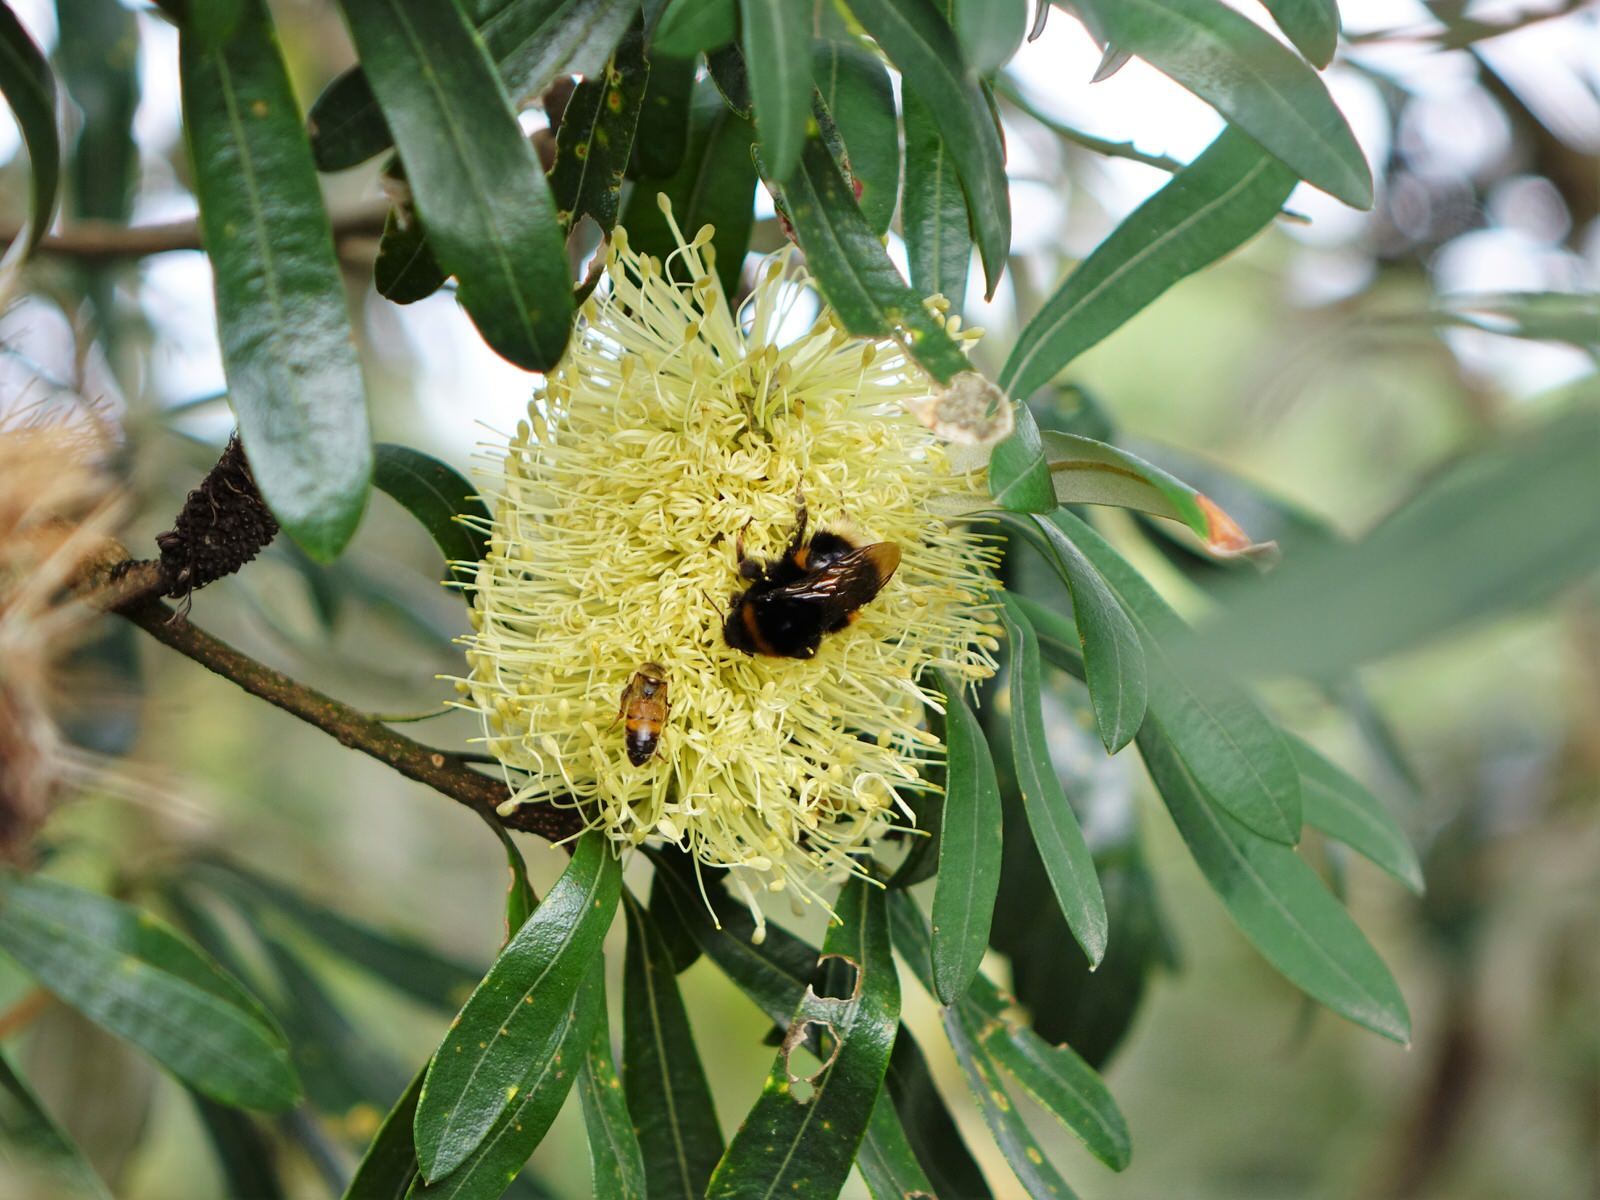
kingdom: Animalia
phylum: Arthropoda
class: Insecta
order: Hymenoptera
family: Apidae
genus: Bombus
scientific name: Bombus terrestris
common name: Buff-tailed bumblebee
